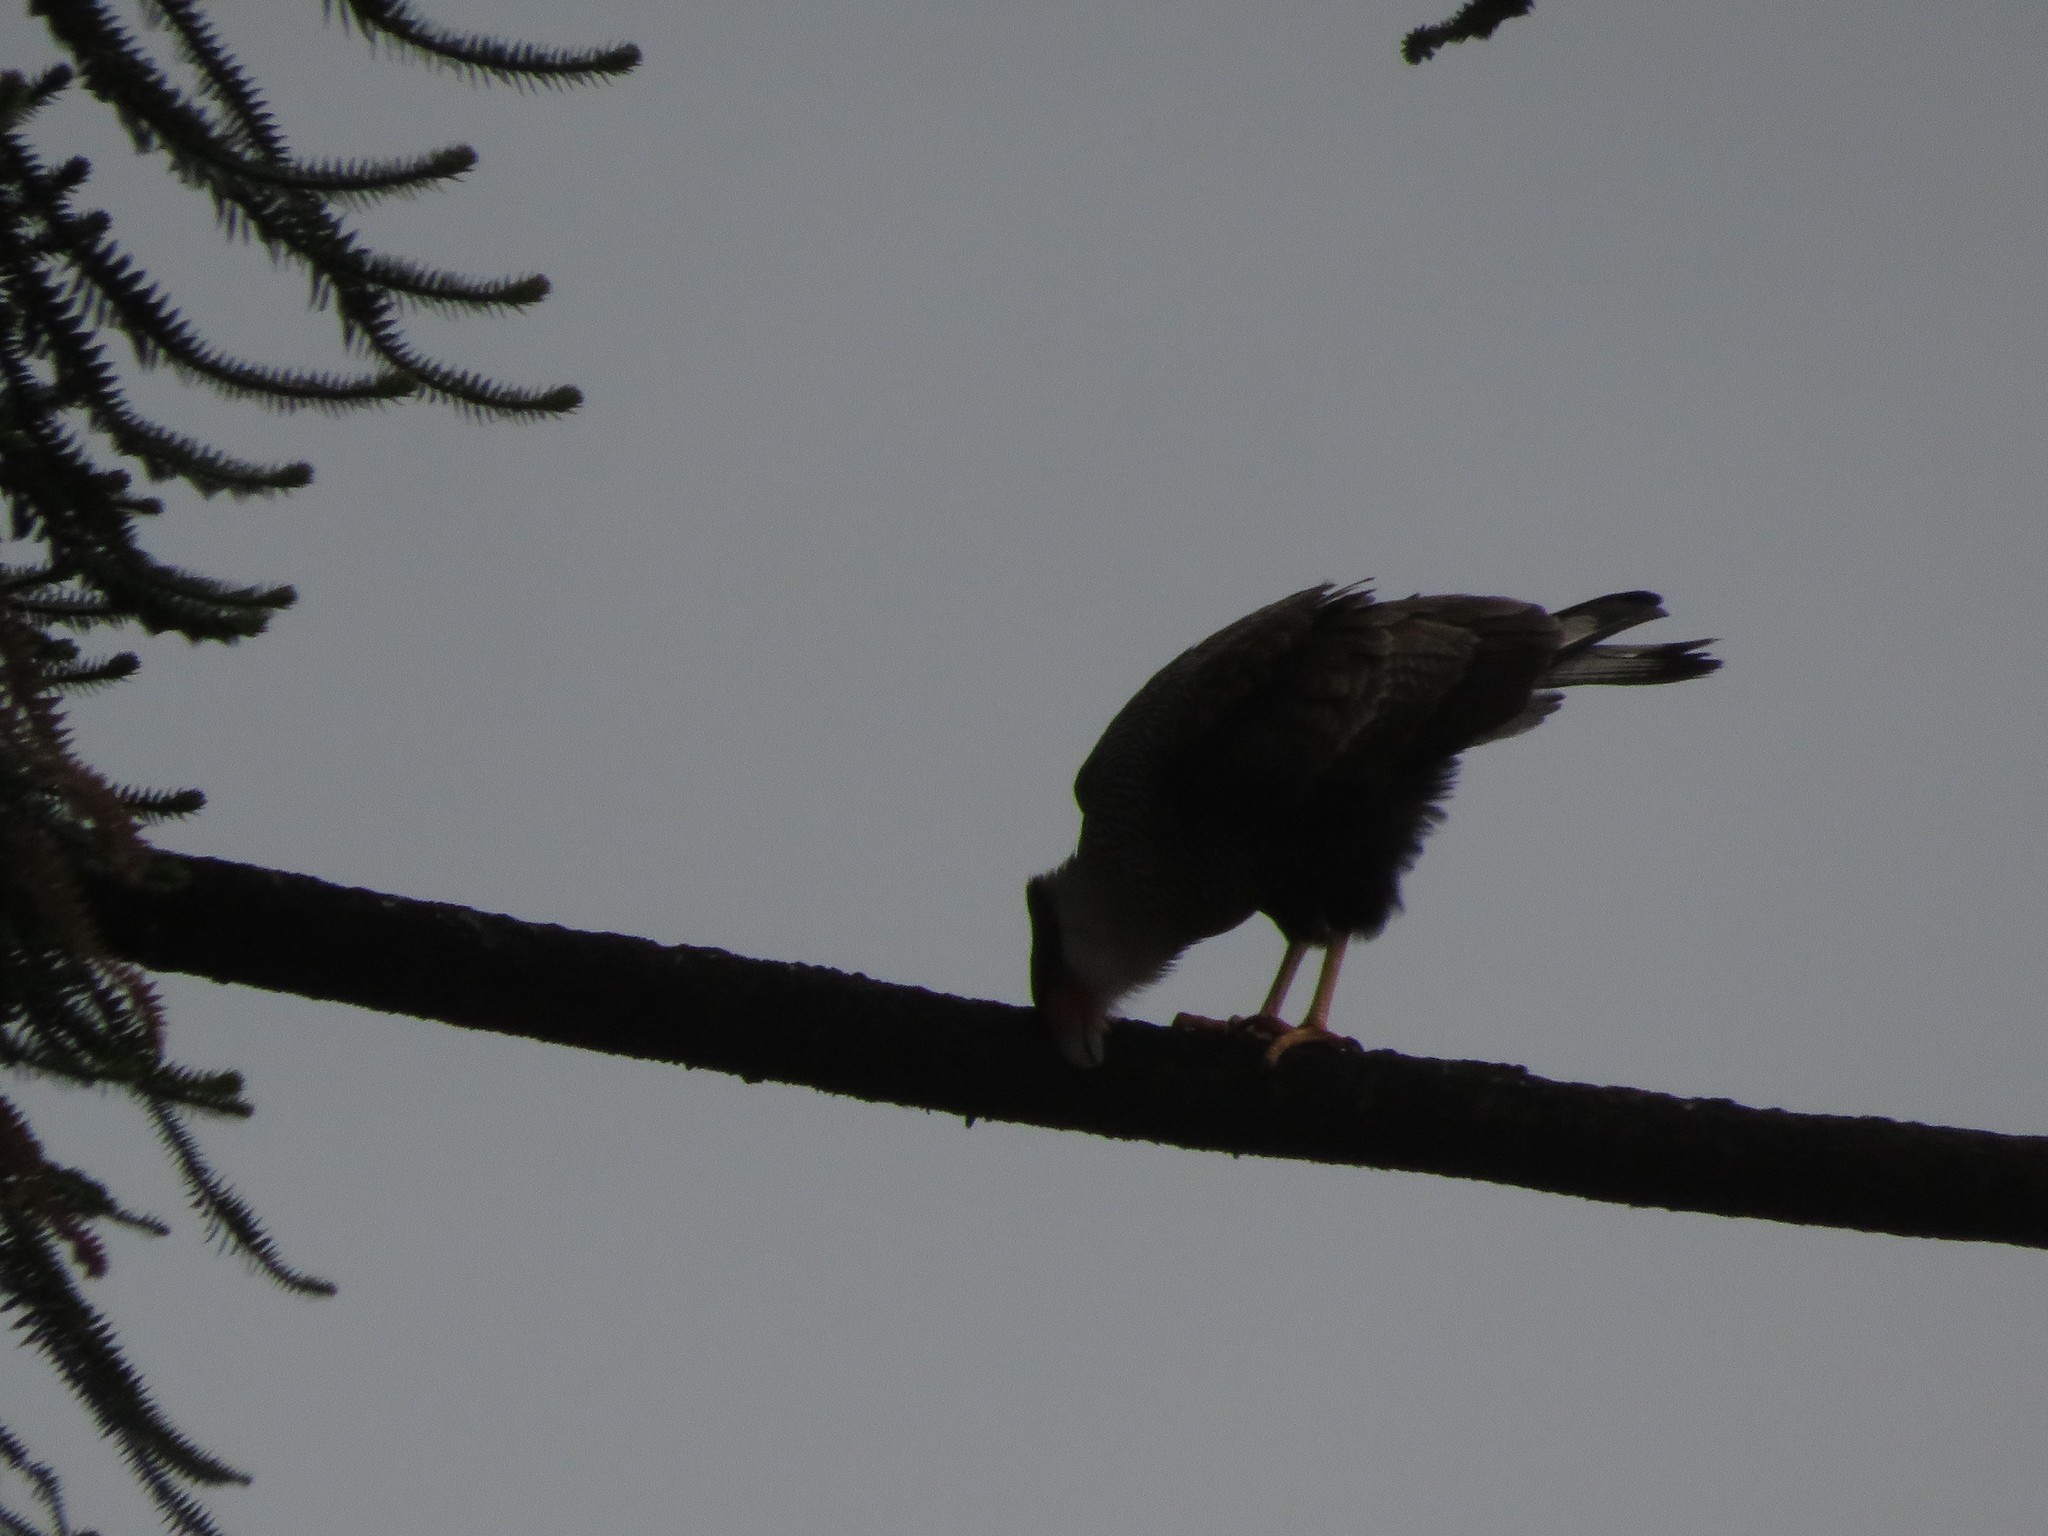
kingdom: Animalia
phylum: Chordata
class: Aves
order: Falconiformes
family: Falconidae
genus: Caracara
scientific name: Caracara plancus
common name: Southern caracara
